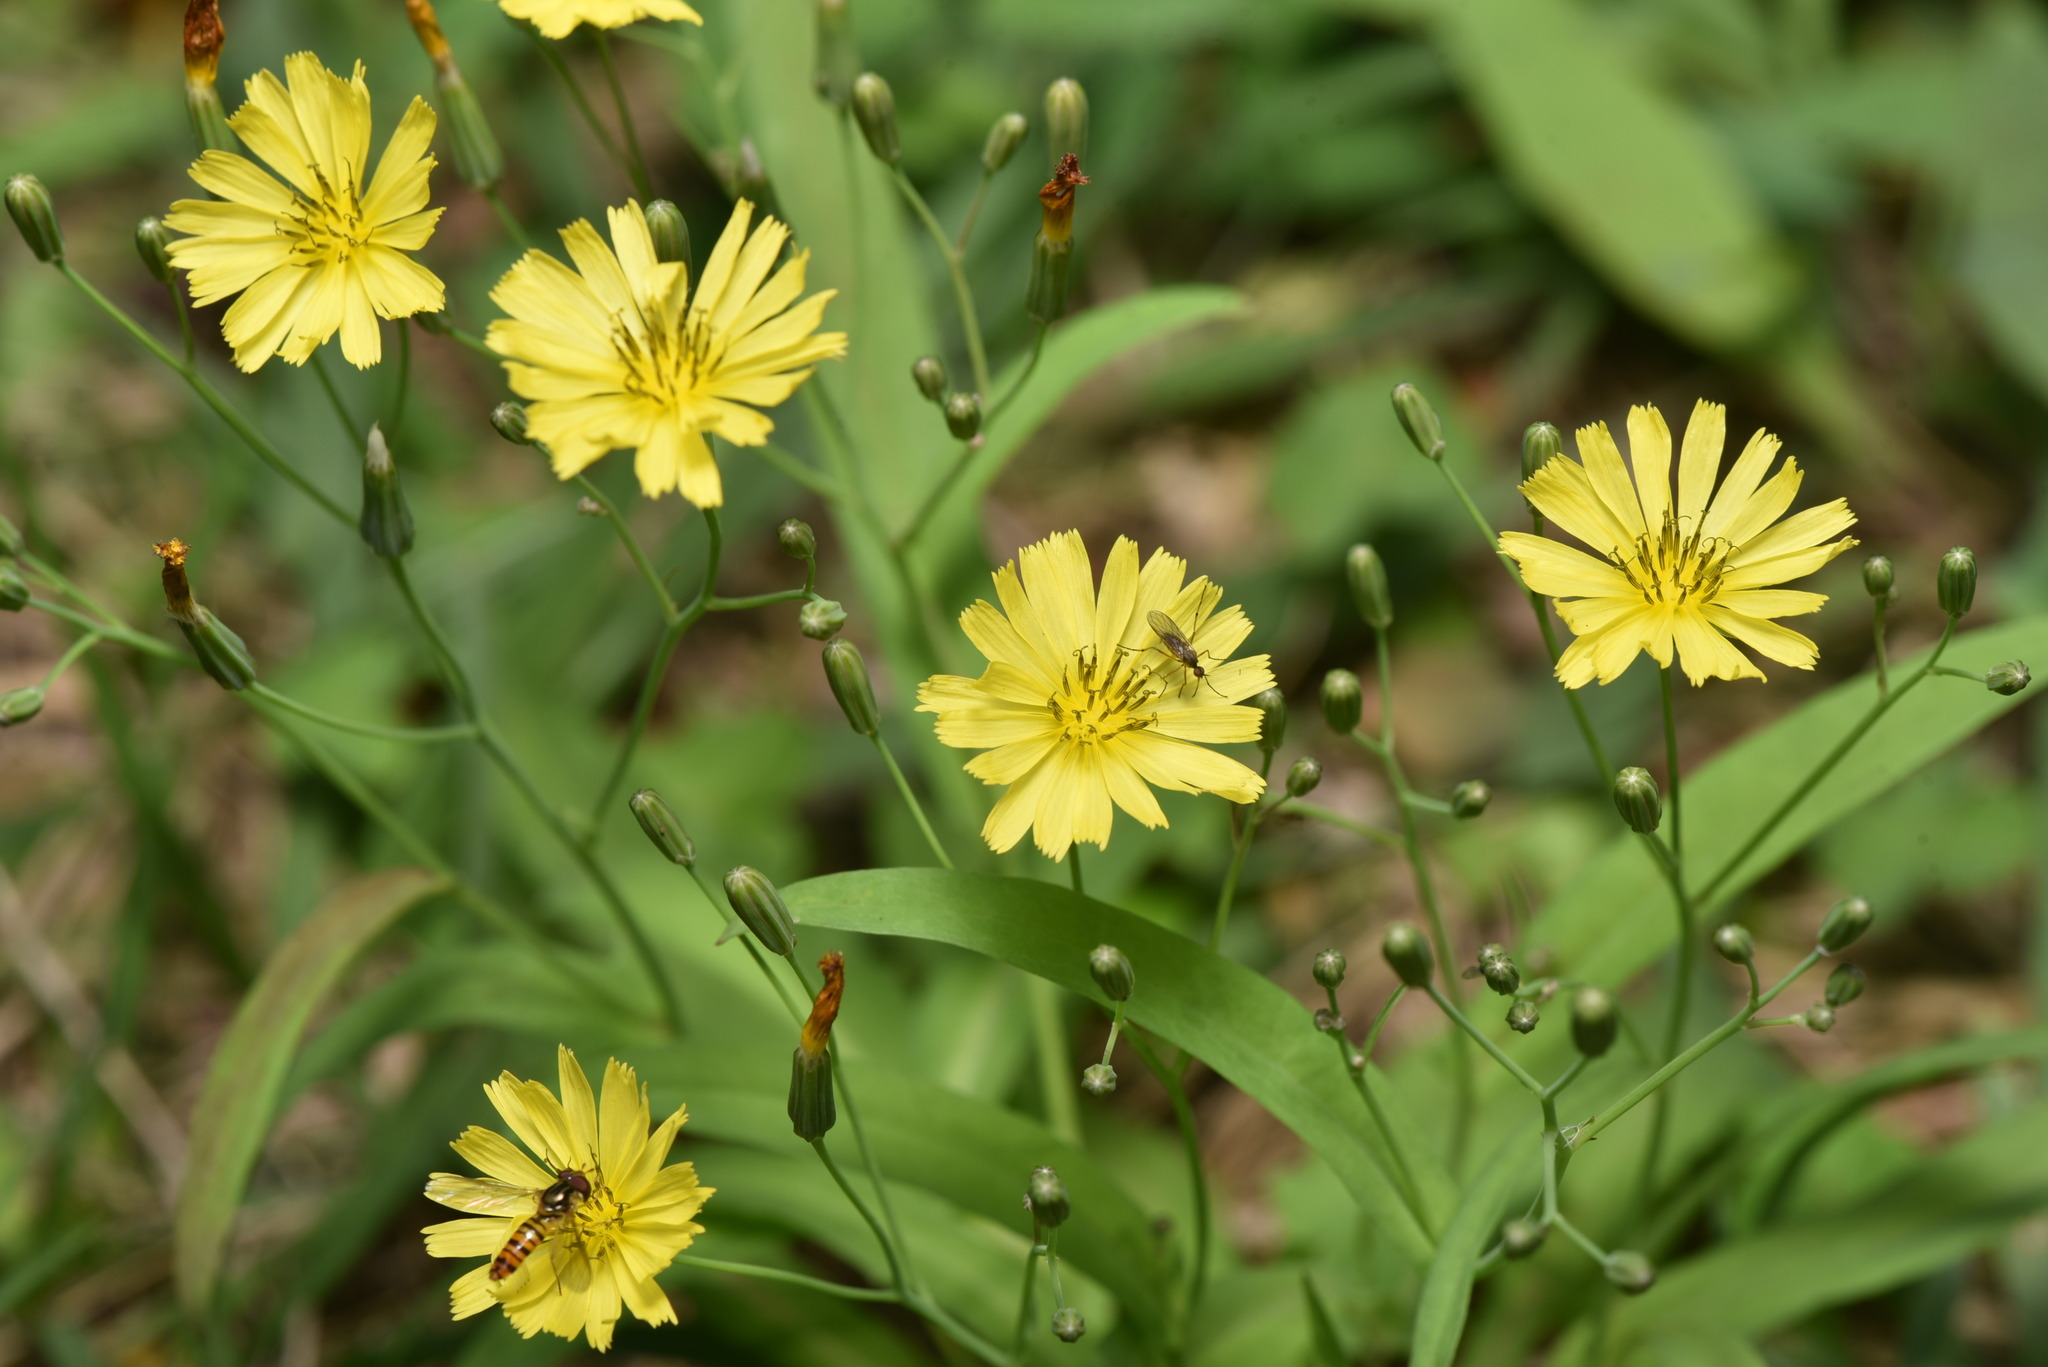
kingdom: Plantae
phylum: Tracheophyta
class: Magnoliopsida
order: Asterales
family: Asteraceae
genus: Ixeris
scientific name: Ixeris chinensis
